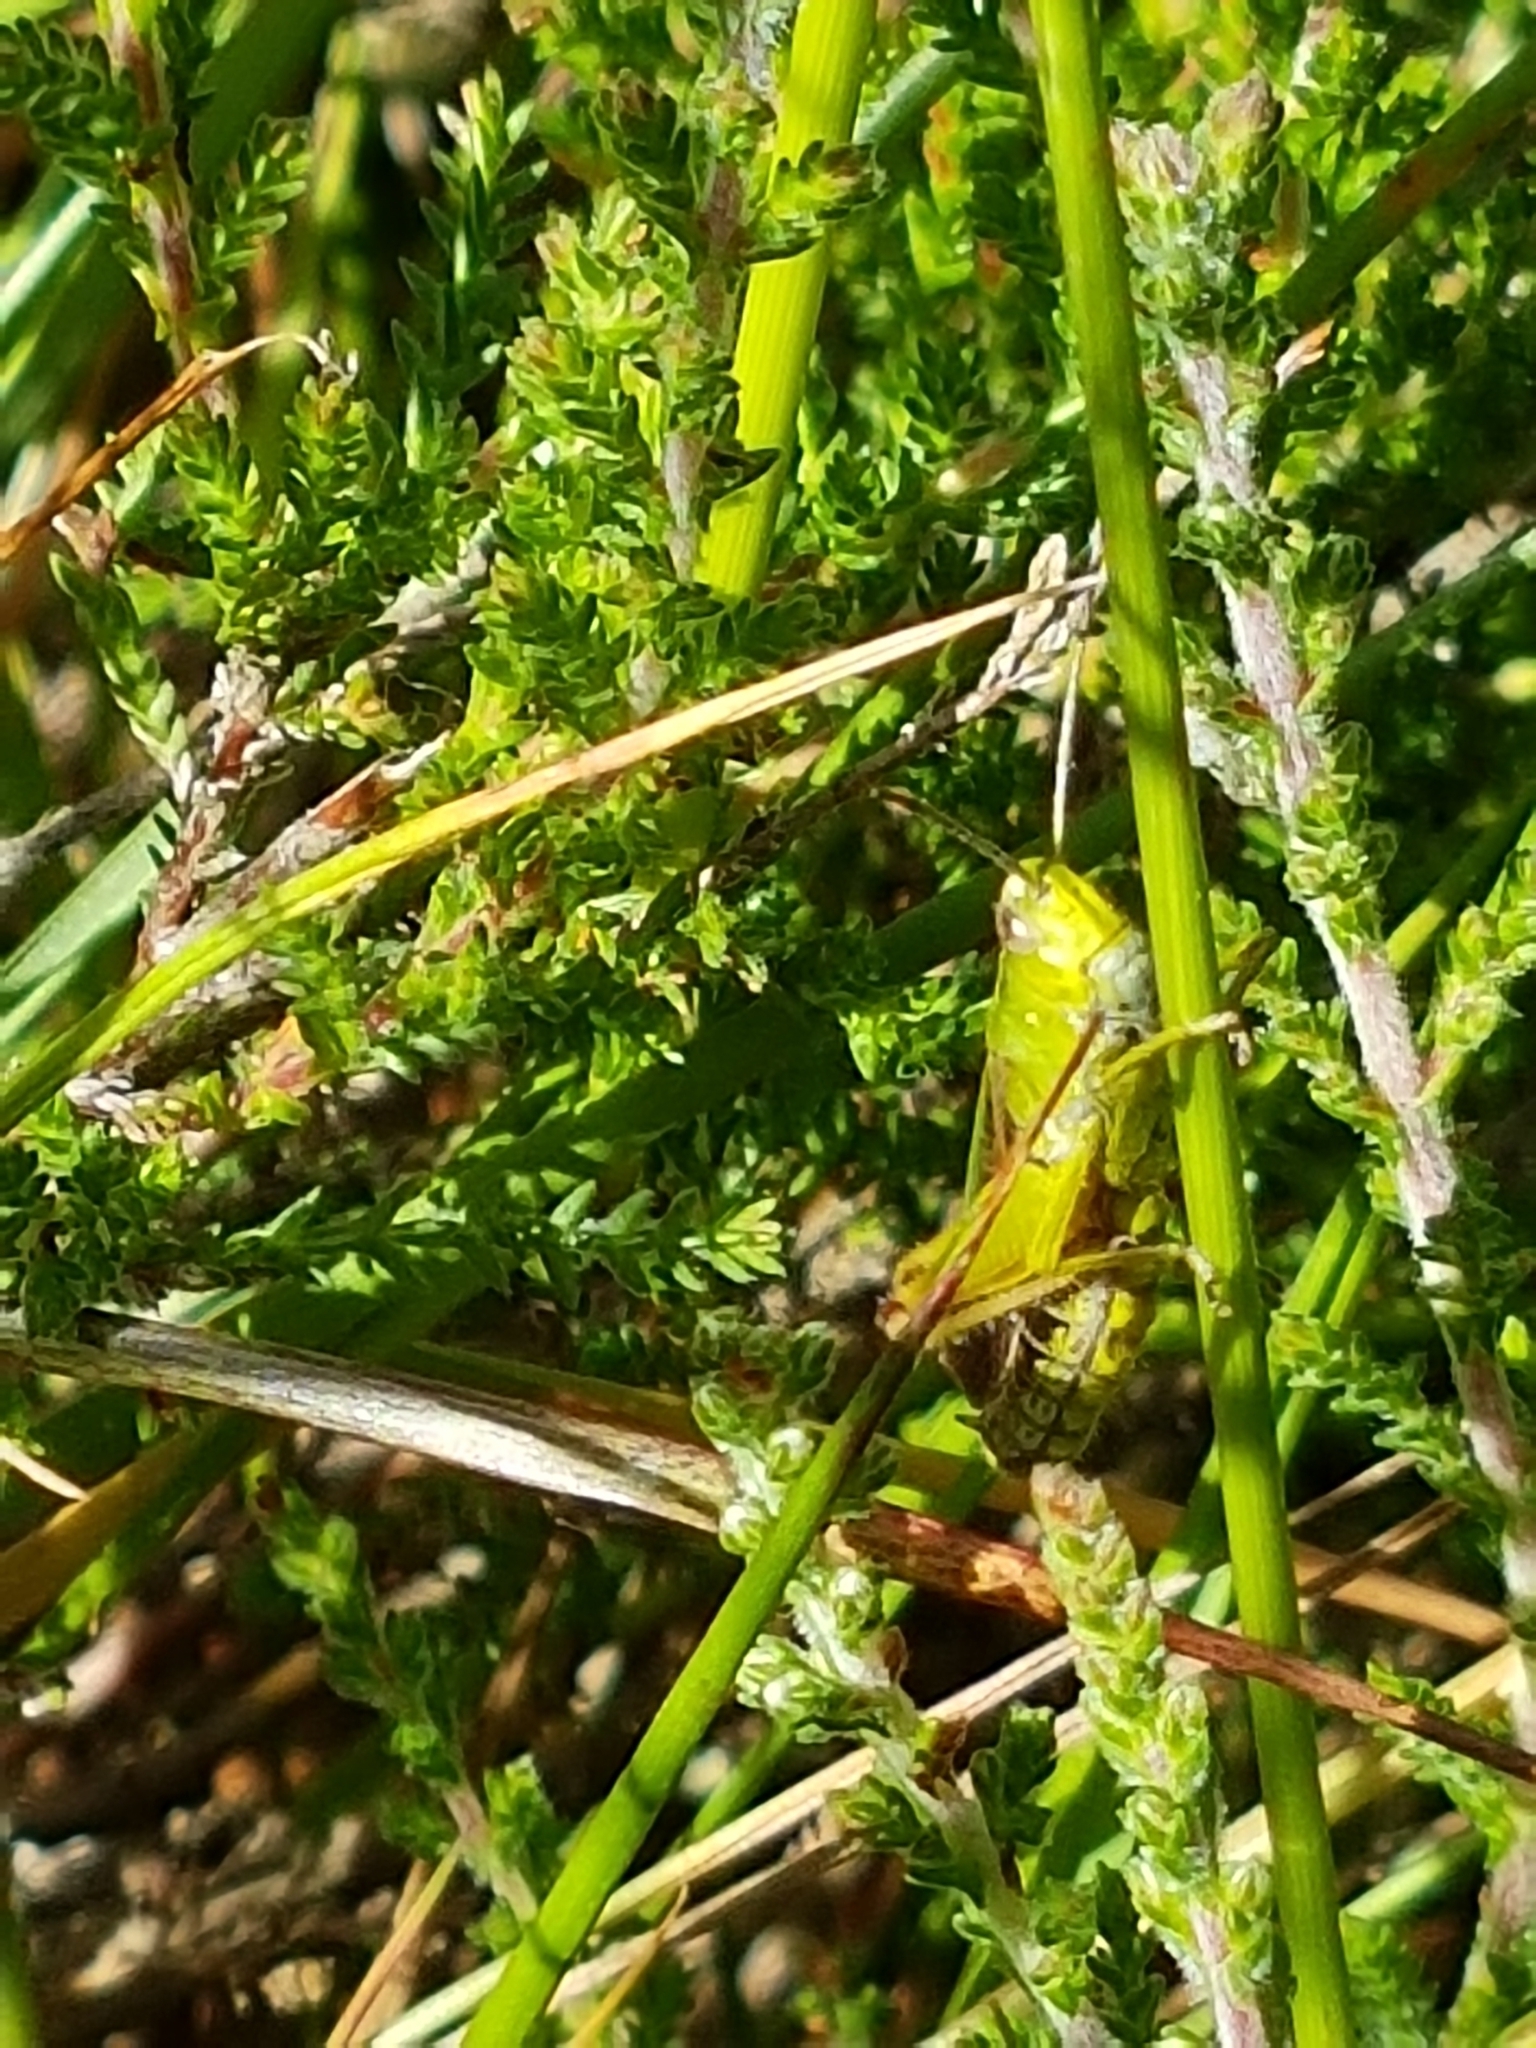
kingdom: Animalia
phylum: Arthropoda
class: Insecta
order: Orthoptera
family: Acrididae
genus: Omocestus
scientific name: Omocestus viridulus
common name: Common green grasshopper
